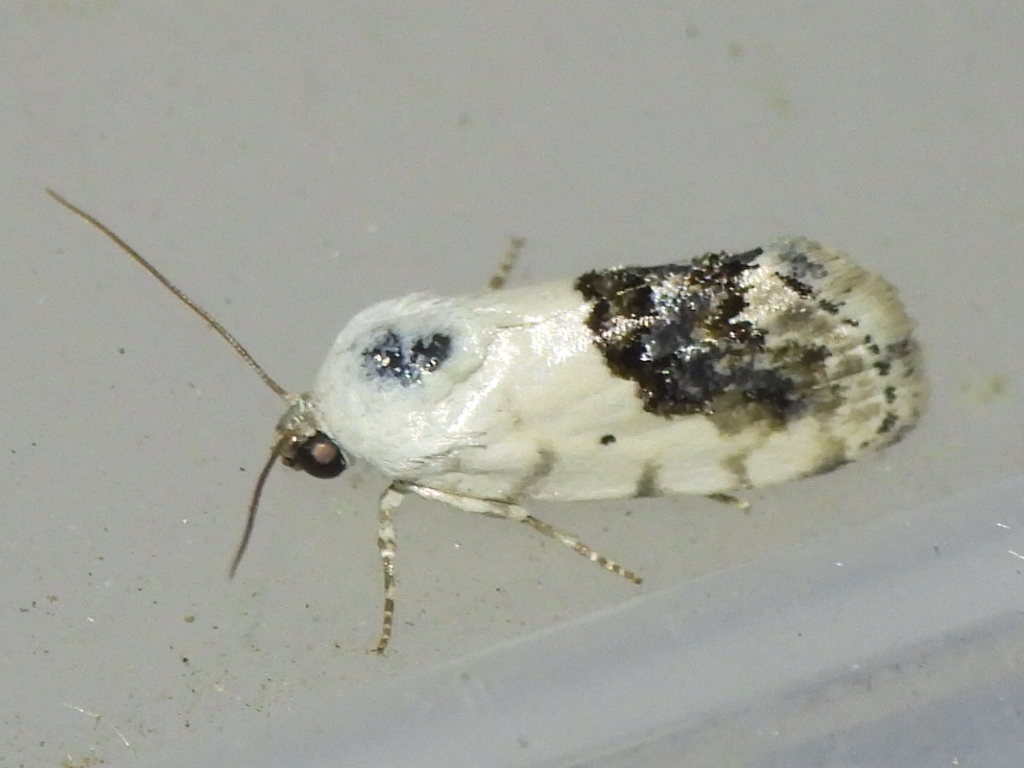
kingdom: Animalia
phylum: Arthropoda
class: Insecta
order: Lepidoptera
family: Noctuidae
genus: Acontia
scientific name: Acontia erastrioides
